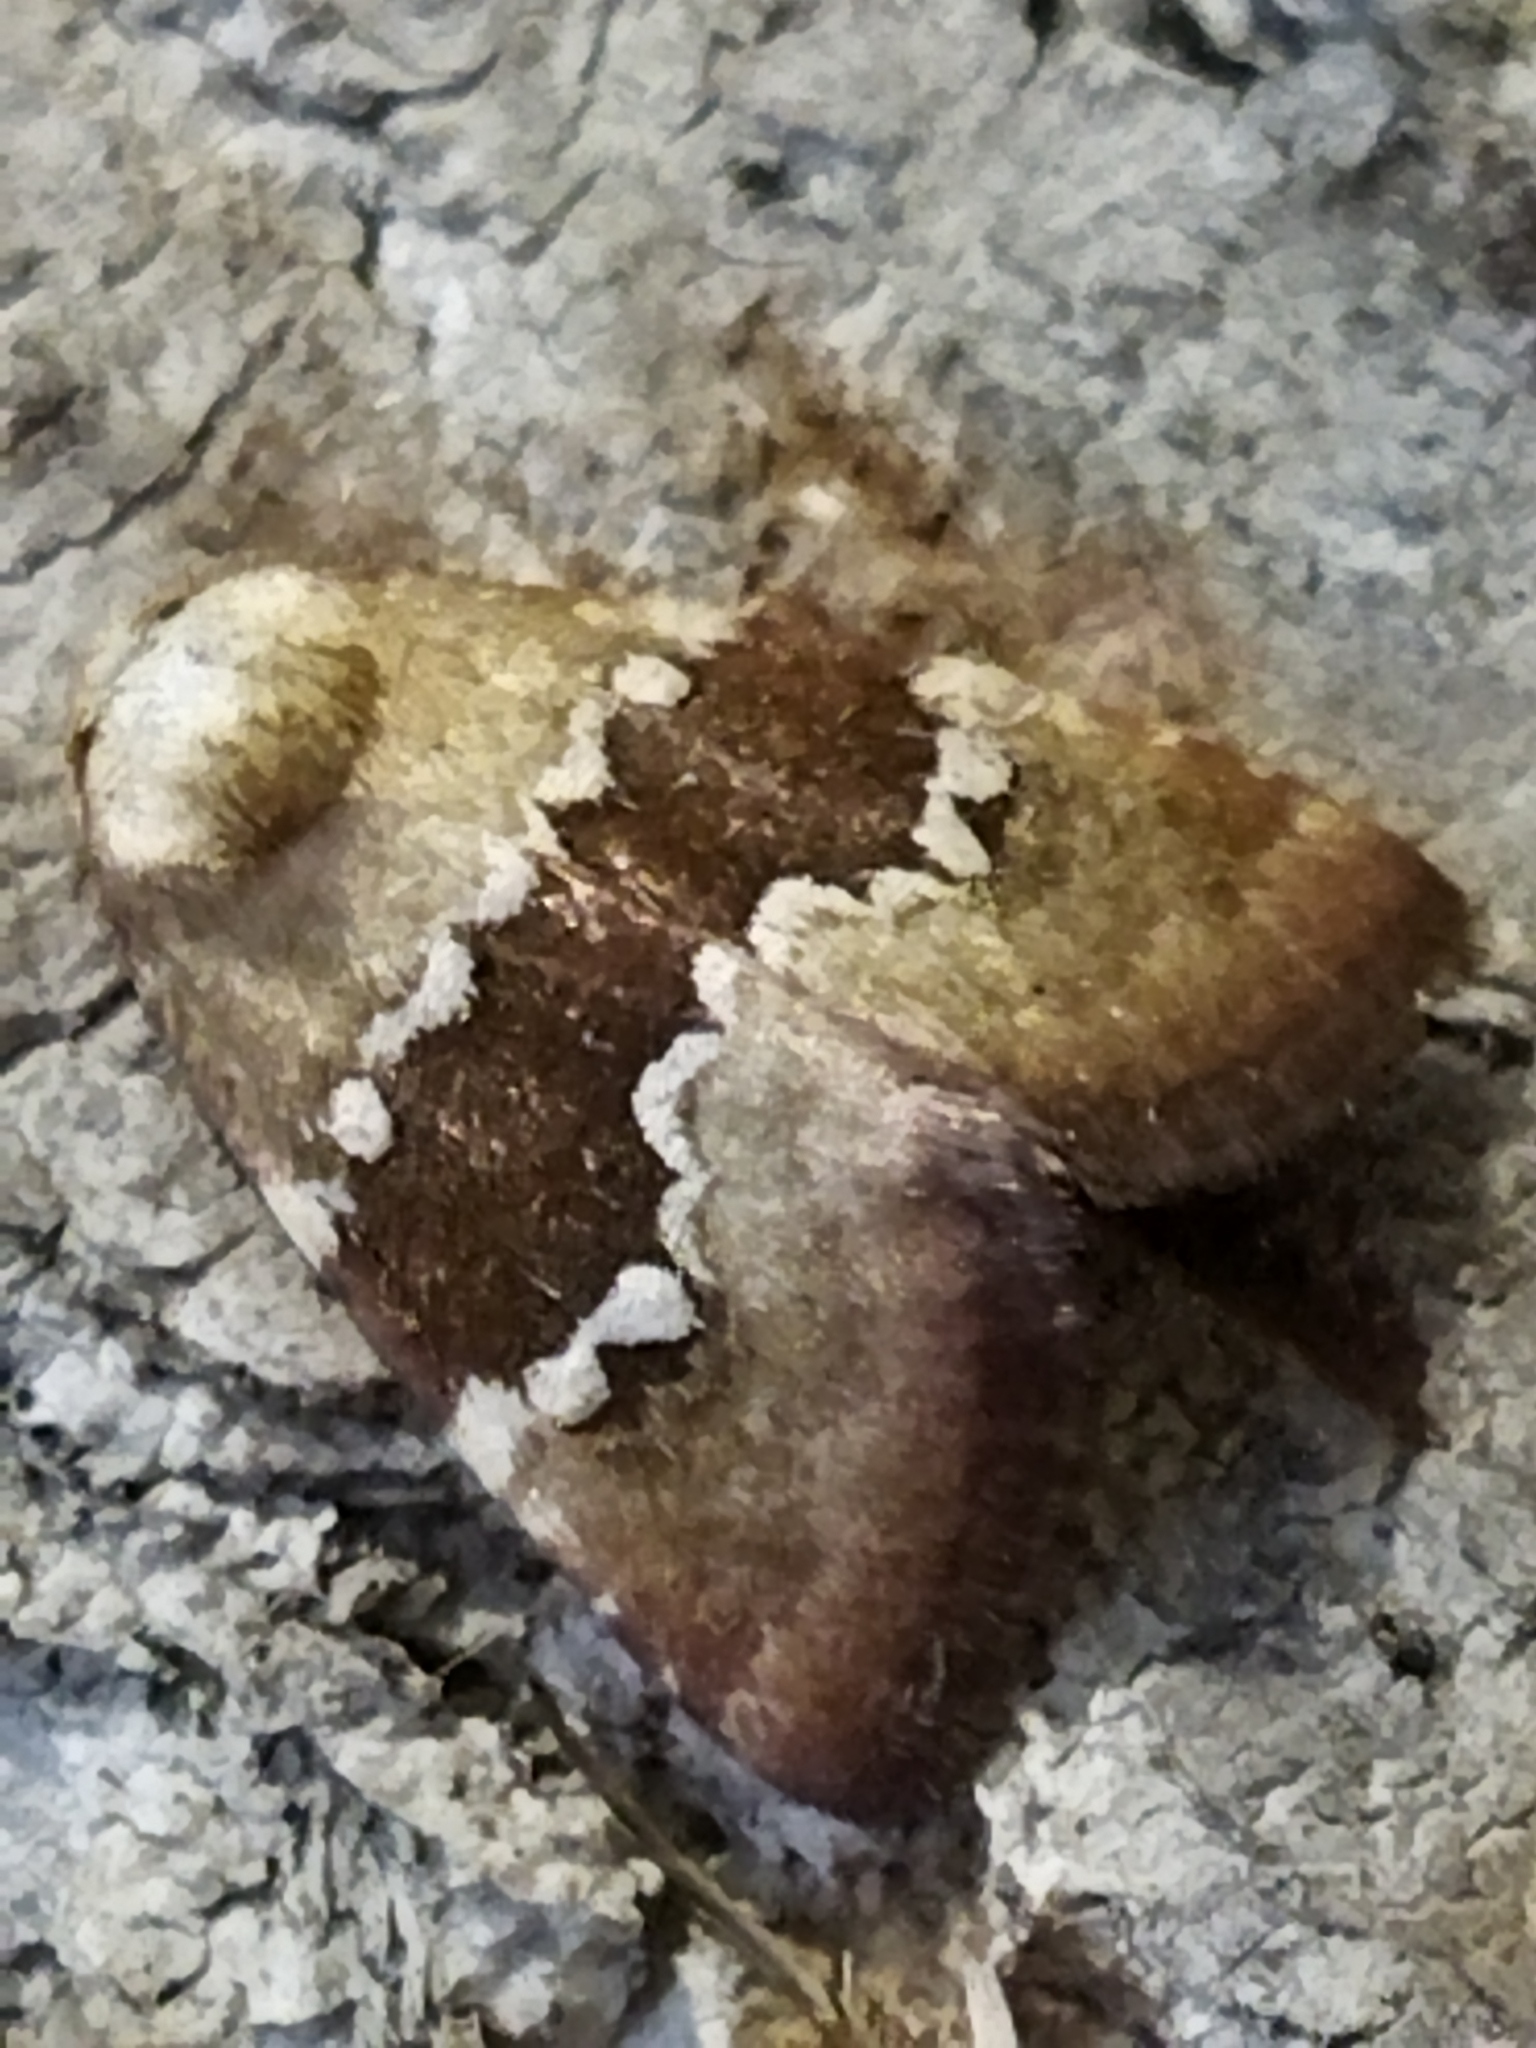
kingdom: Animalia
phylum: Arthropoda
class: Insecta
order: Lepidoptera
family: Noctuidae
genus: Haemerosia
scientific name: Haemerosia vassilininei
